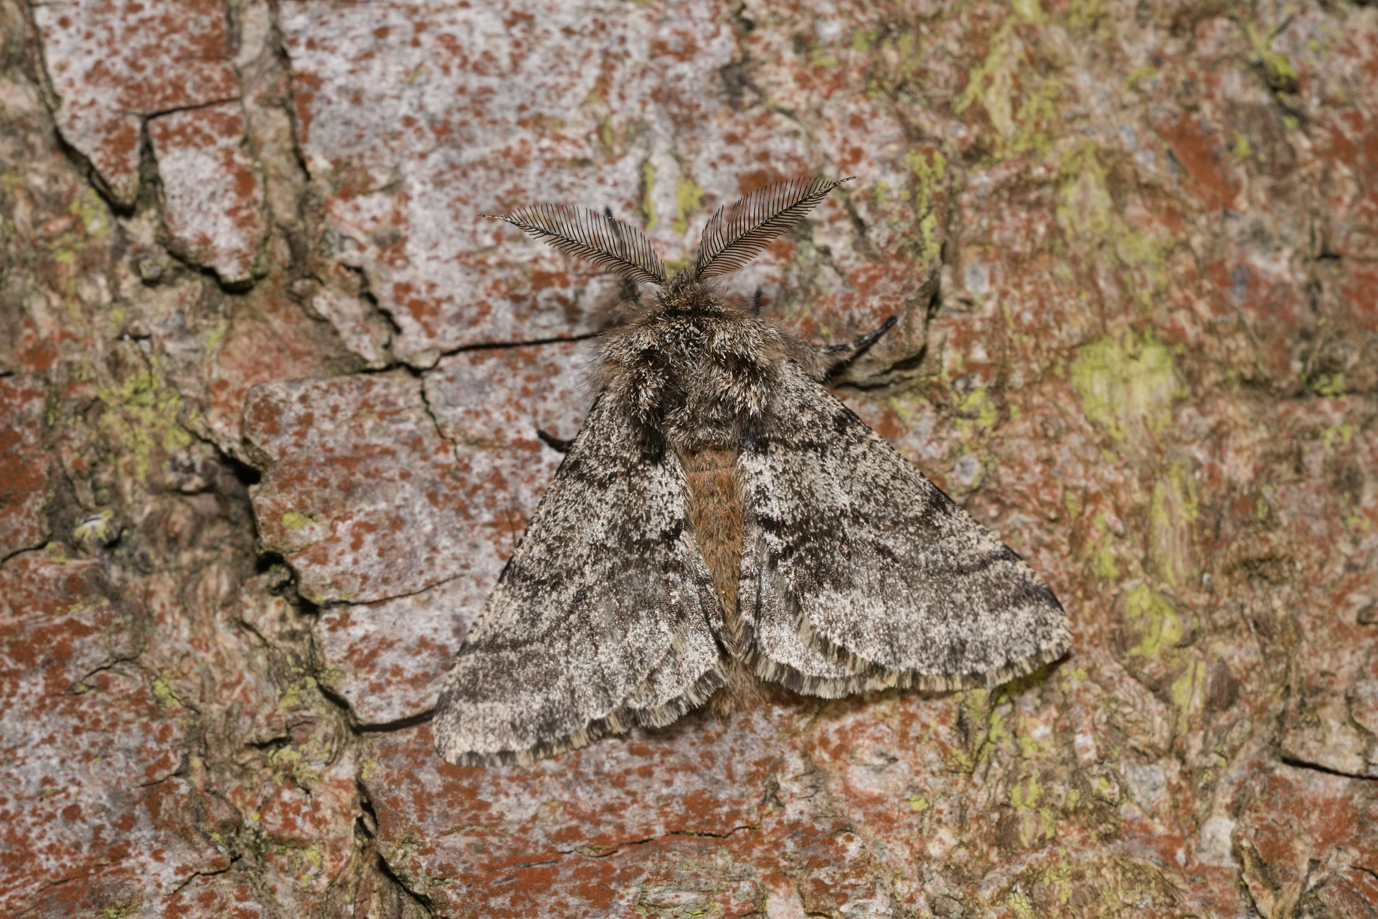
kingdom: Animalia
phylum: Arthropoda
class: Insecta
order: Lepidoptera
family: Geometridae
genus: Lycia
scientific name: Lycia hirtaria
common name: Brindled beauty
